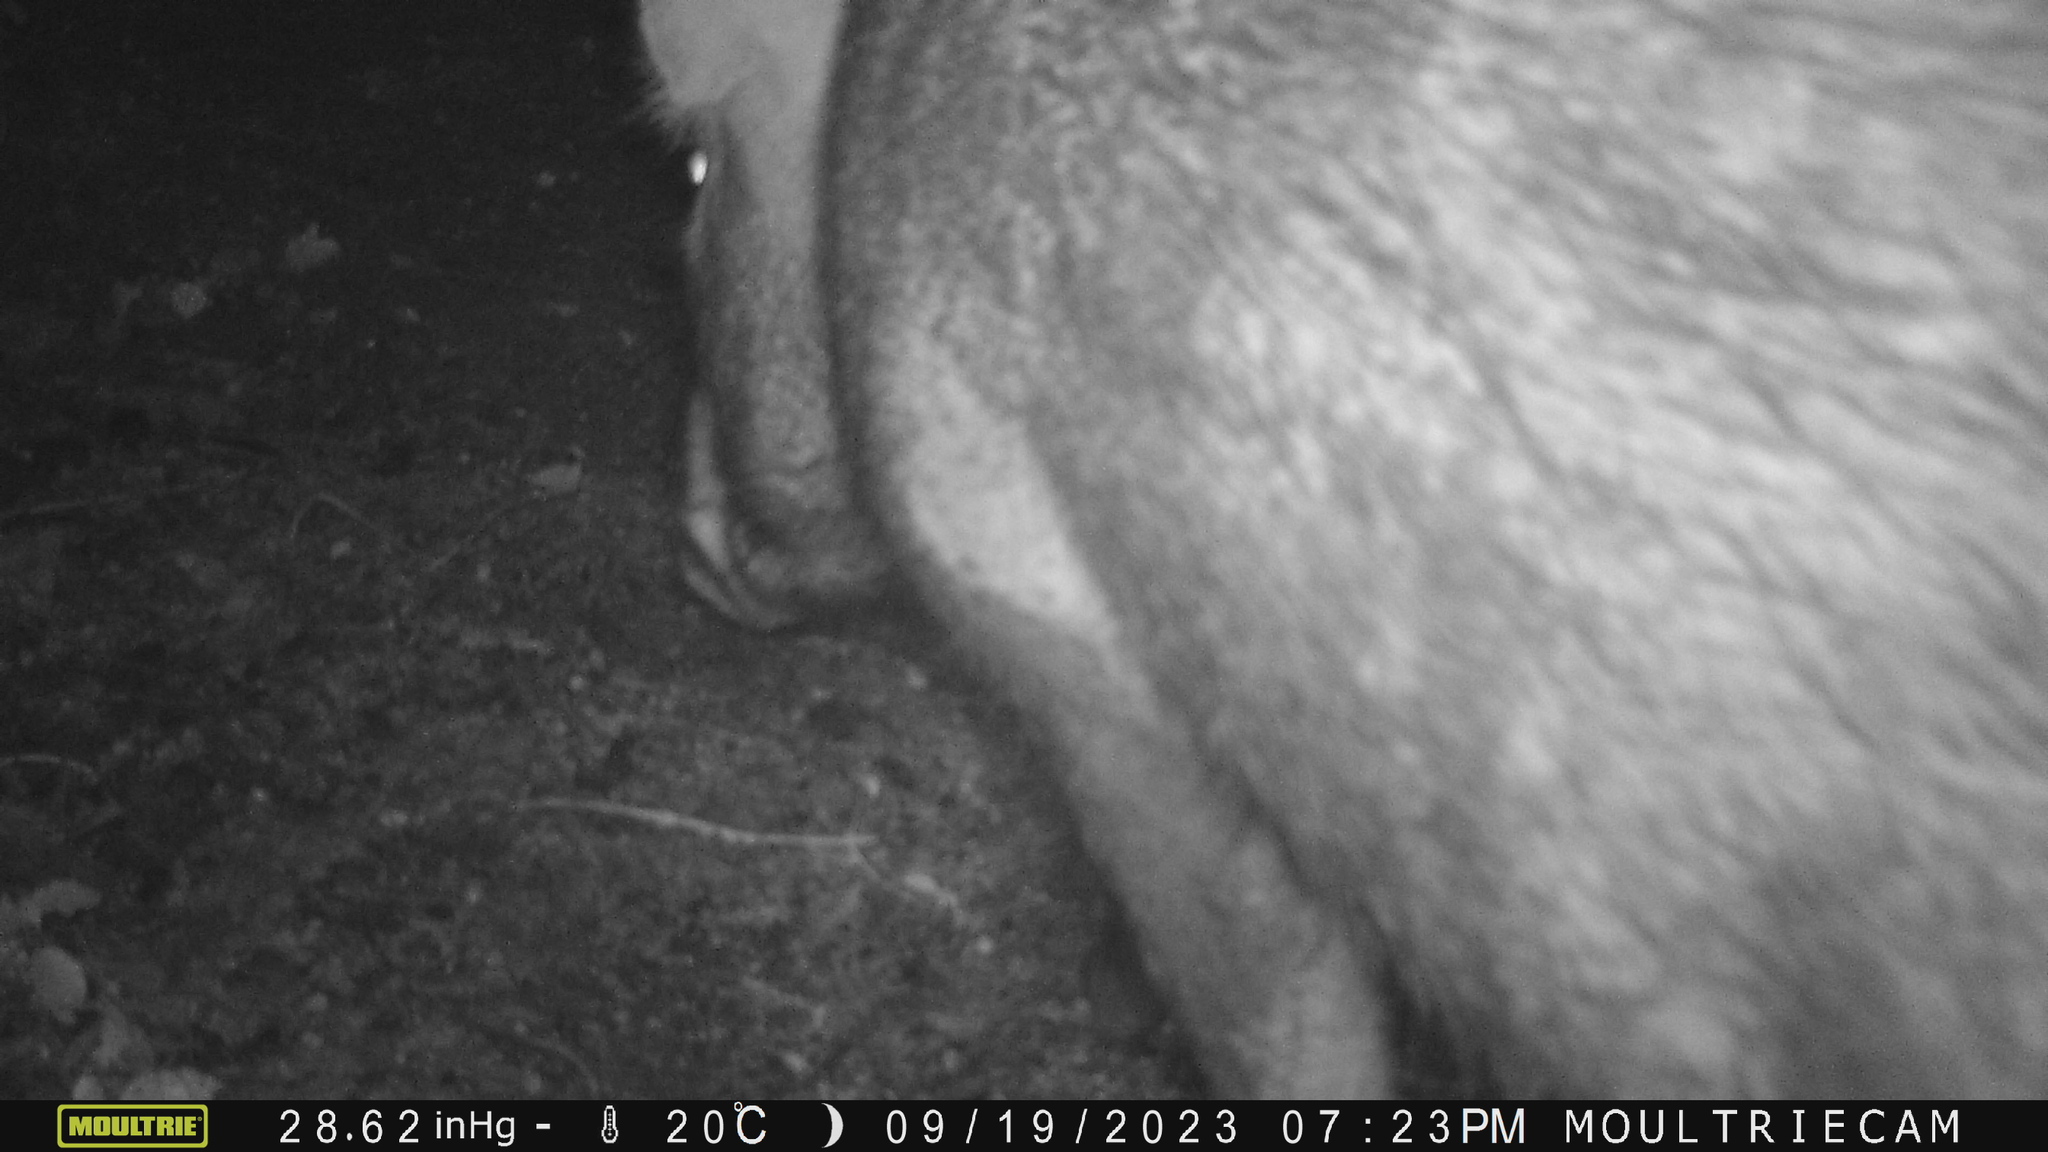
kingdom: Animalia
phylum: Chordata
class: Mammalia
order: Artiodactyla
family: Suidae
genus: Sus
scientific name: Sus scrofa
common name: Wild boar
